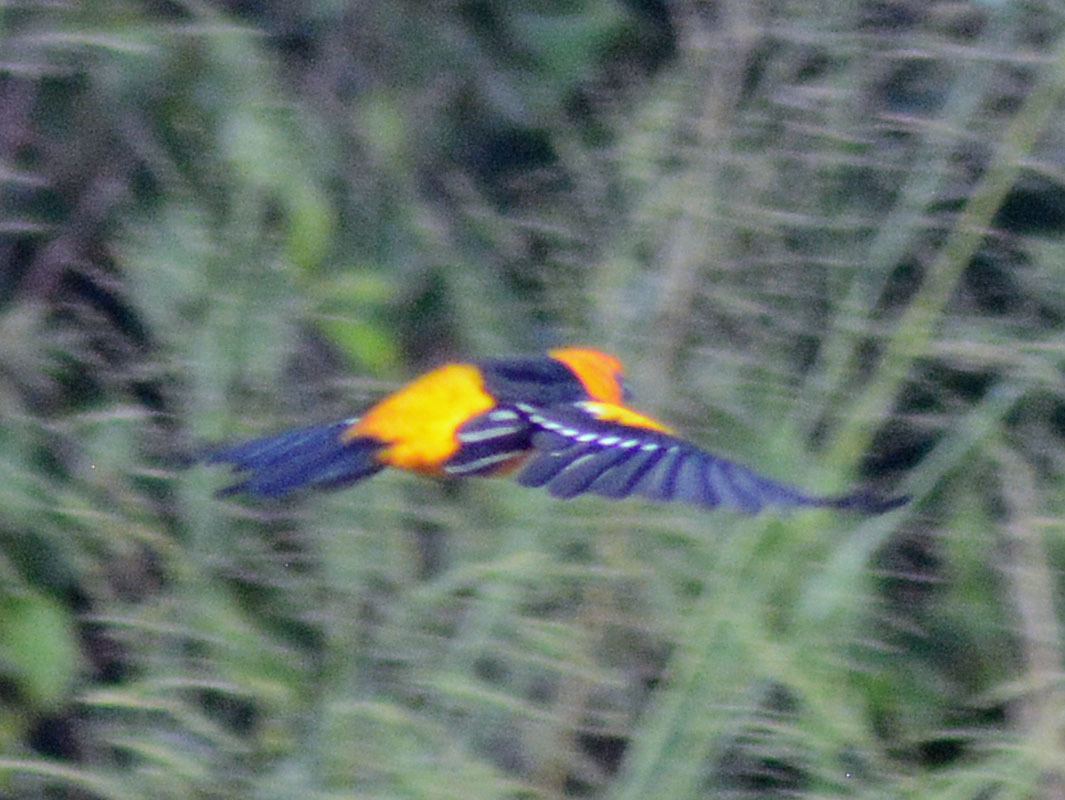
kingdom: Animalia
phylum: Chordata
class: Aves
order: Passeriformes
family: Icteridae
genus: Icterus
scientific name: Icterus gularis
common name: Altamira oriole
